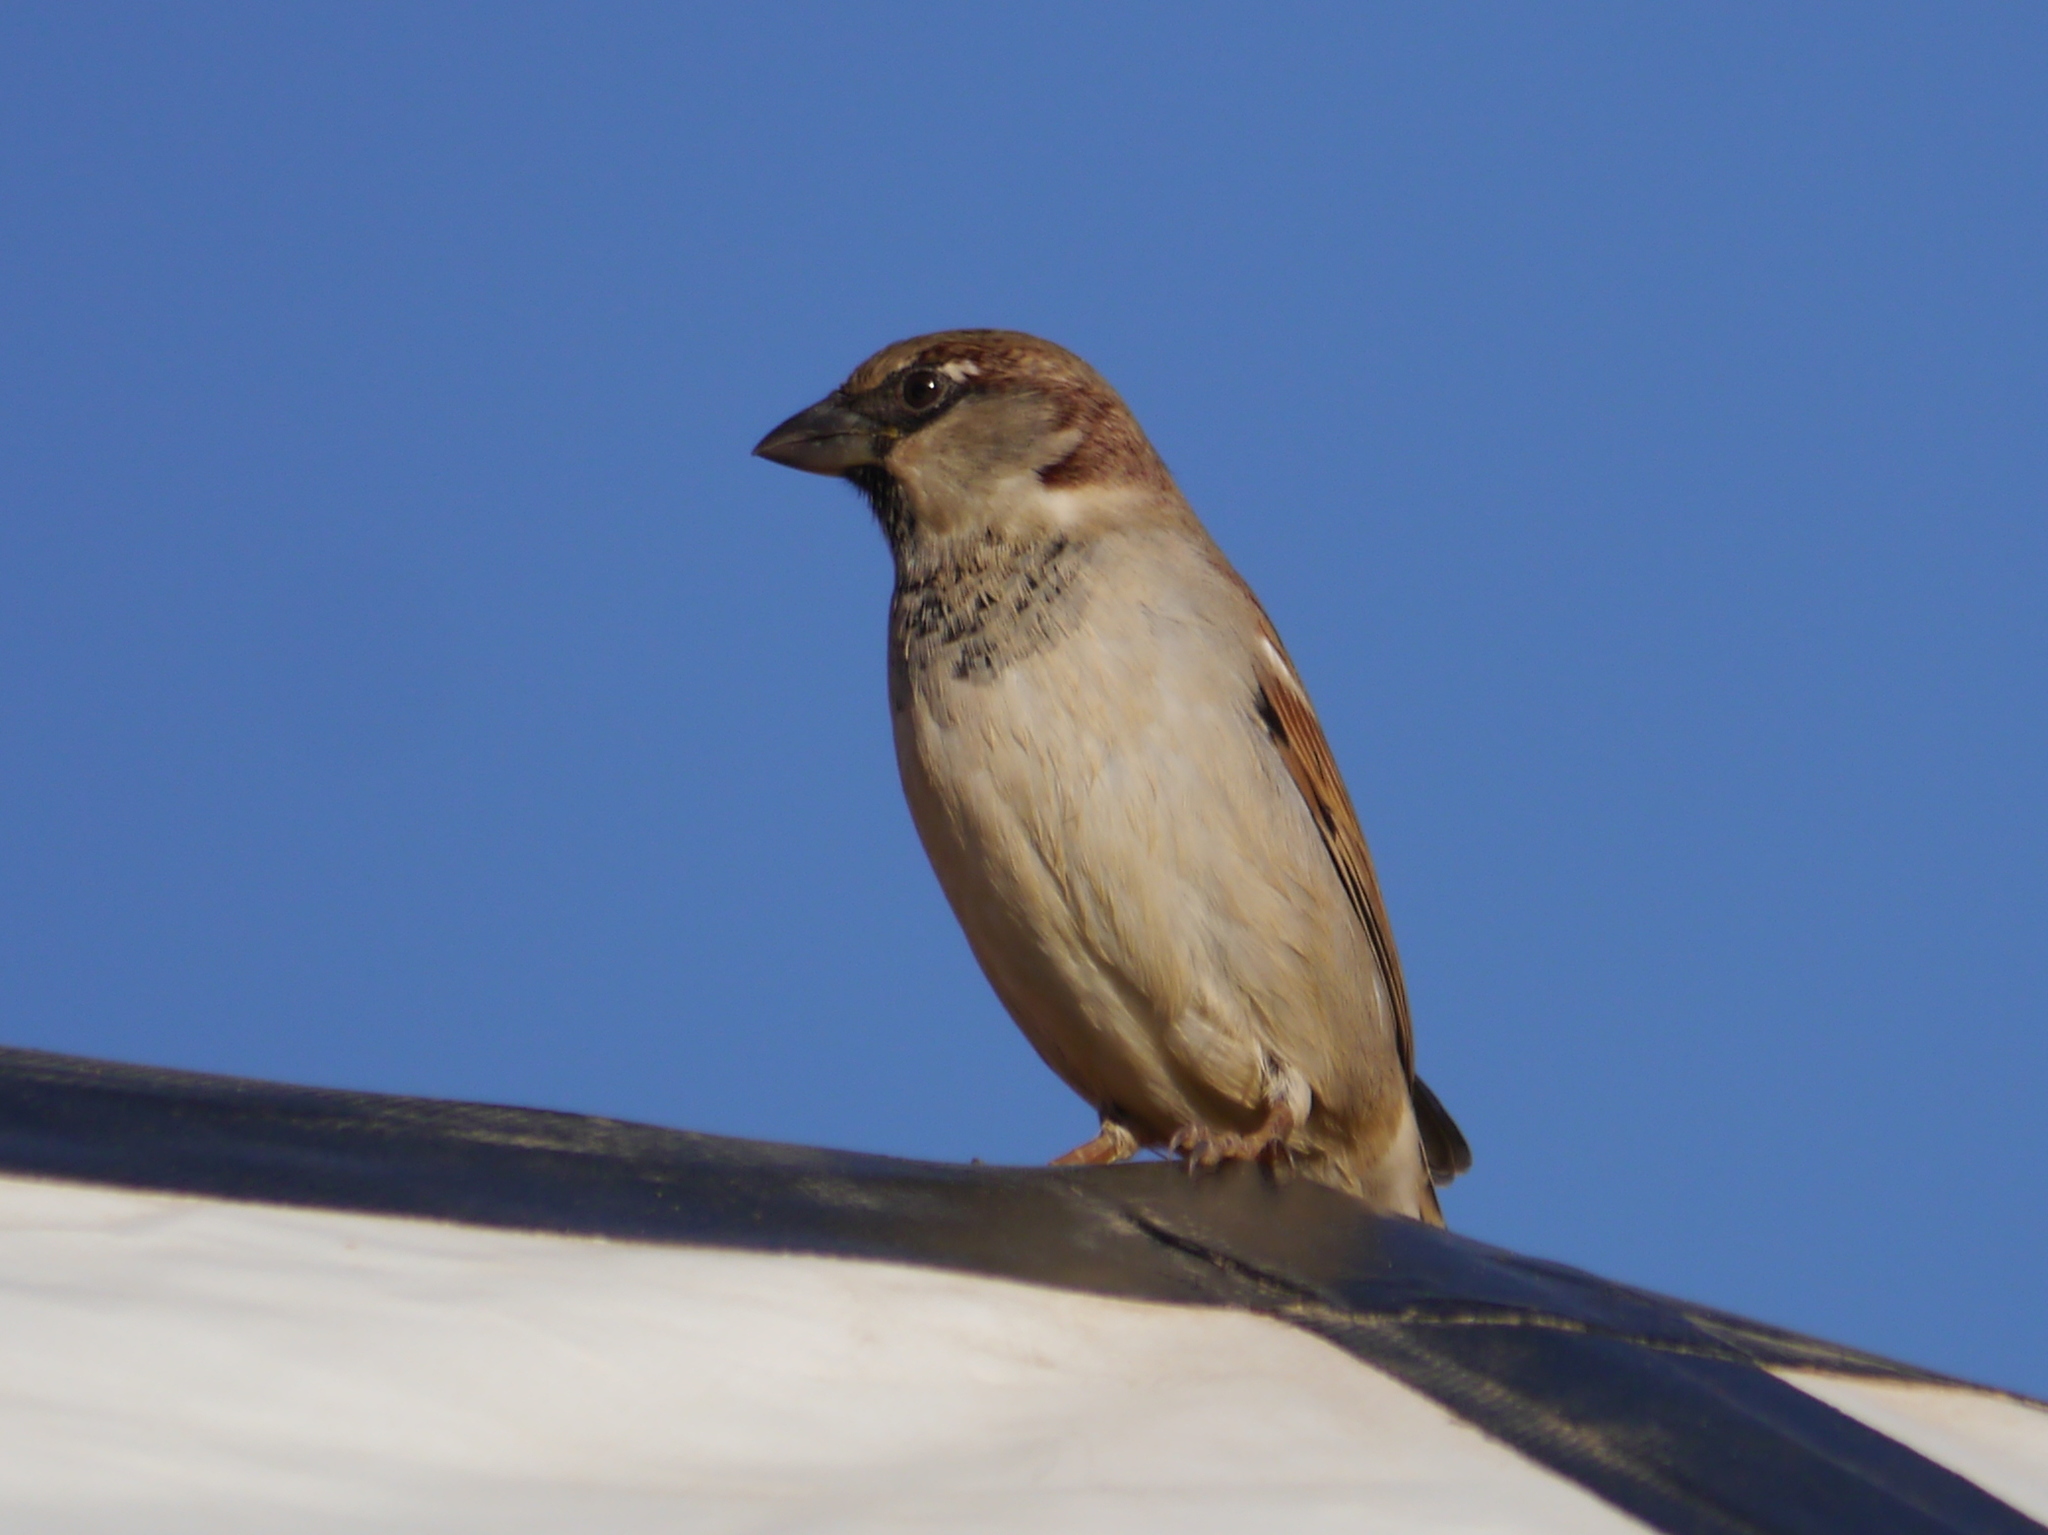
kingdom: Animalia
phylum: Chordata
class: Aves
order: Passeriformes
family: Passeridae
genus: Passer
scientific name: Passer domesticus
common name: House sparrow
